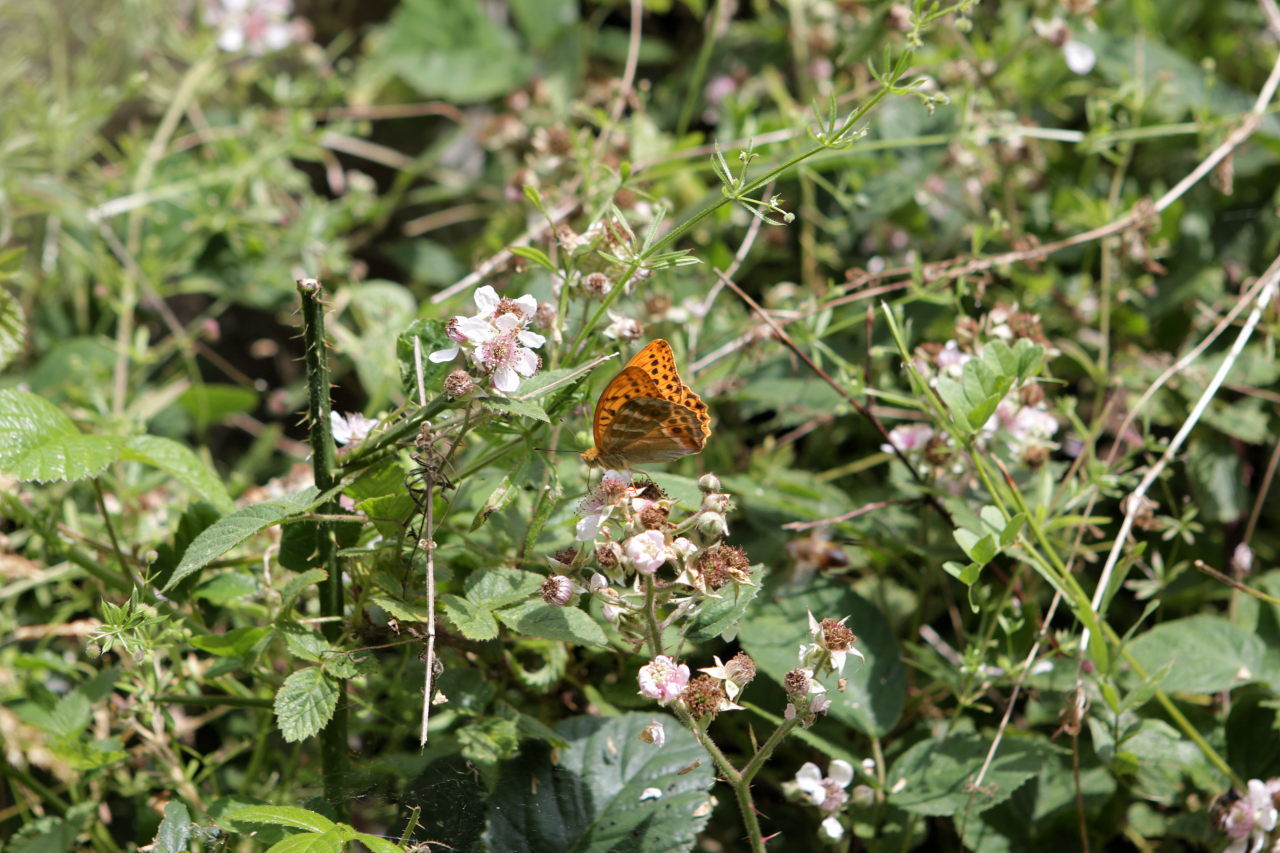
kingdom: Animalia
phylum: Arthropoda
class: Insecta
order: Lepidoptera
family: Nymphalidae
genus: Argynnis
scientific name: Argynnis paphia
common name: Silver-washed fritillary
